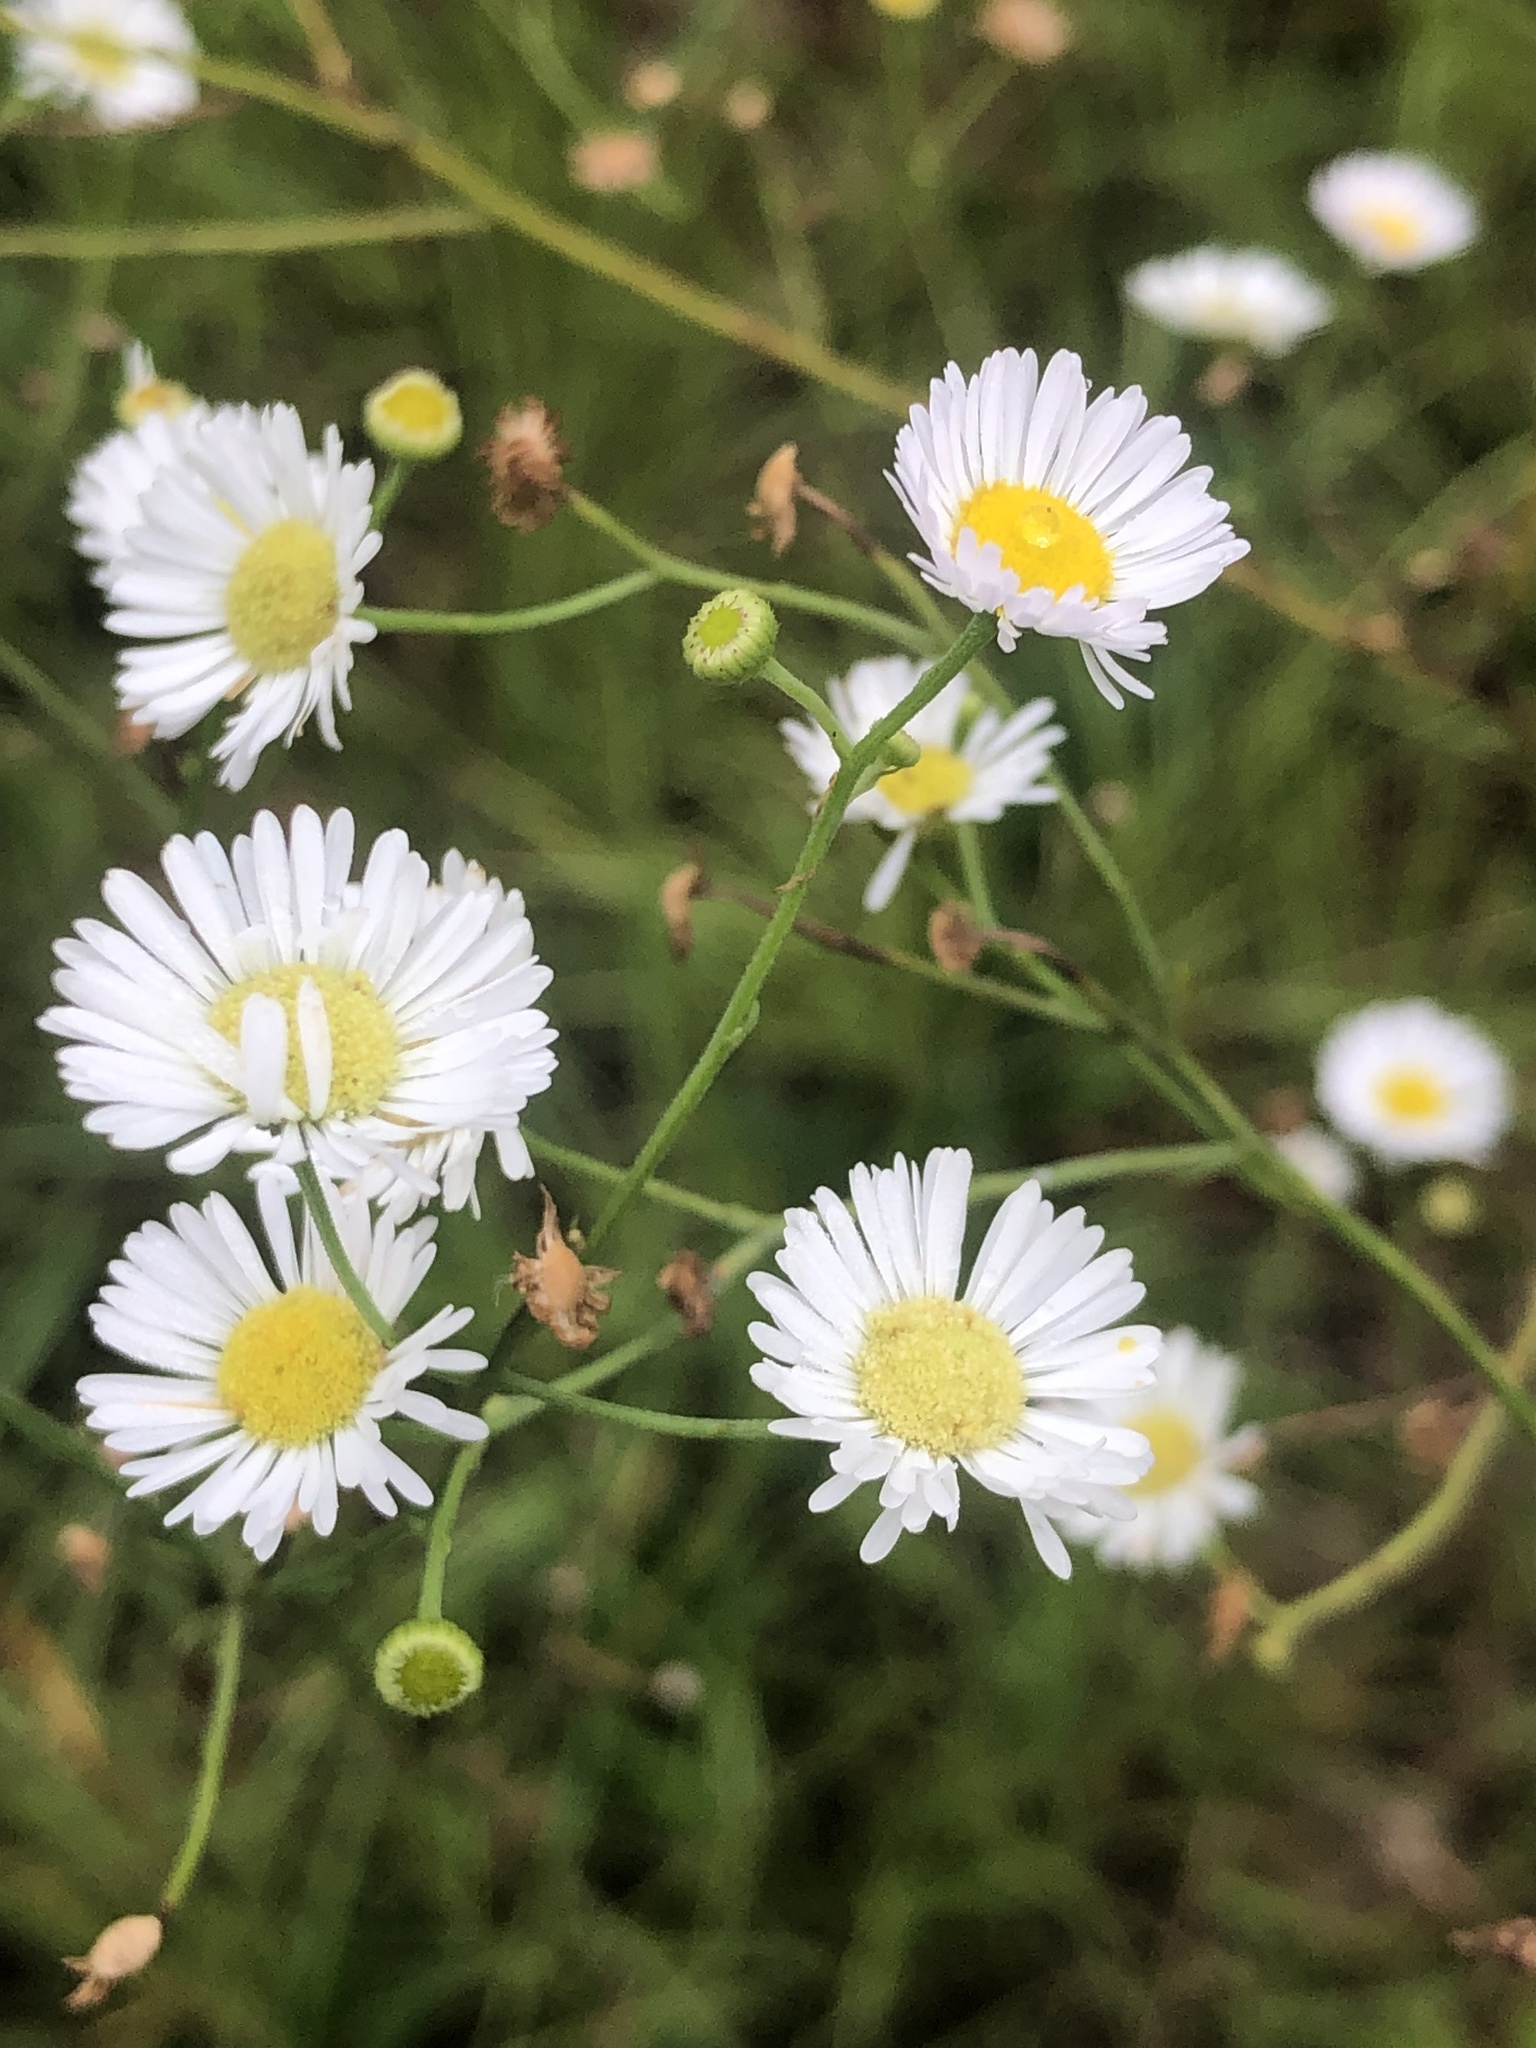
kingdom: Plantae
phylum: Tracheophyta
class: Magnoliopsida
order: Asterales
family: Asteraceae
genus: Erigeron
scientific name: Erigeron strigosus
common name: Common eastern fleabane
